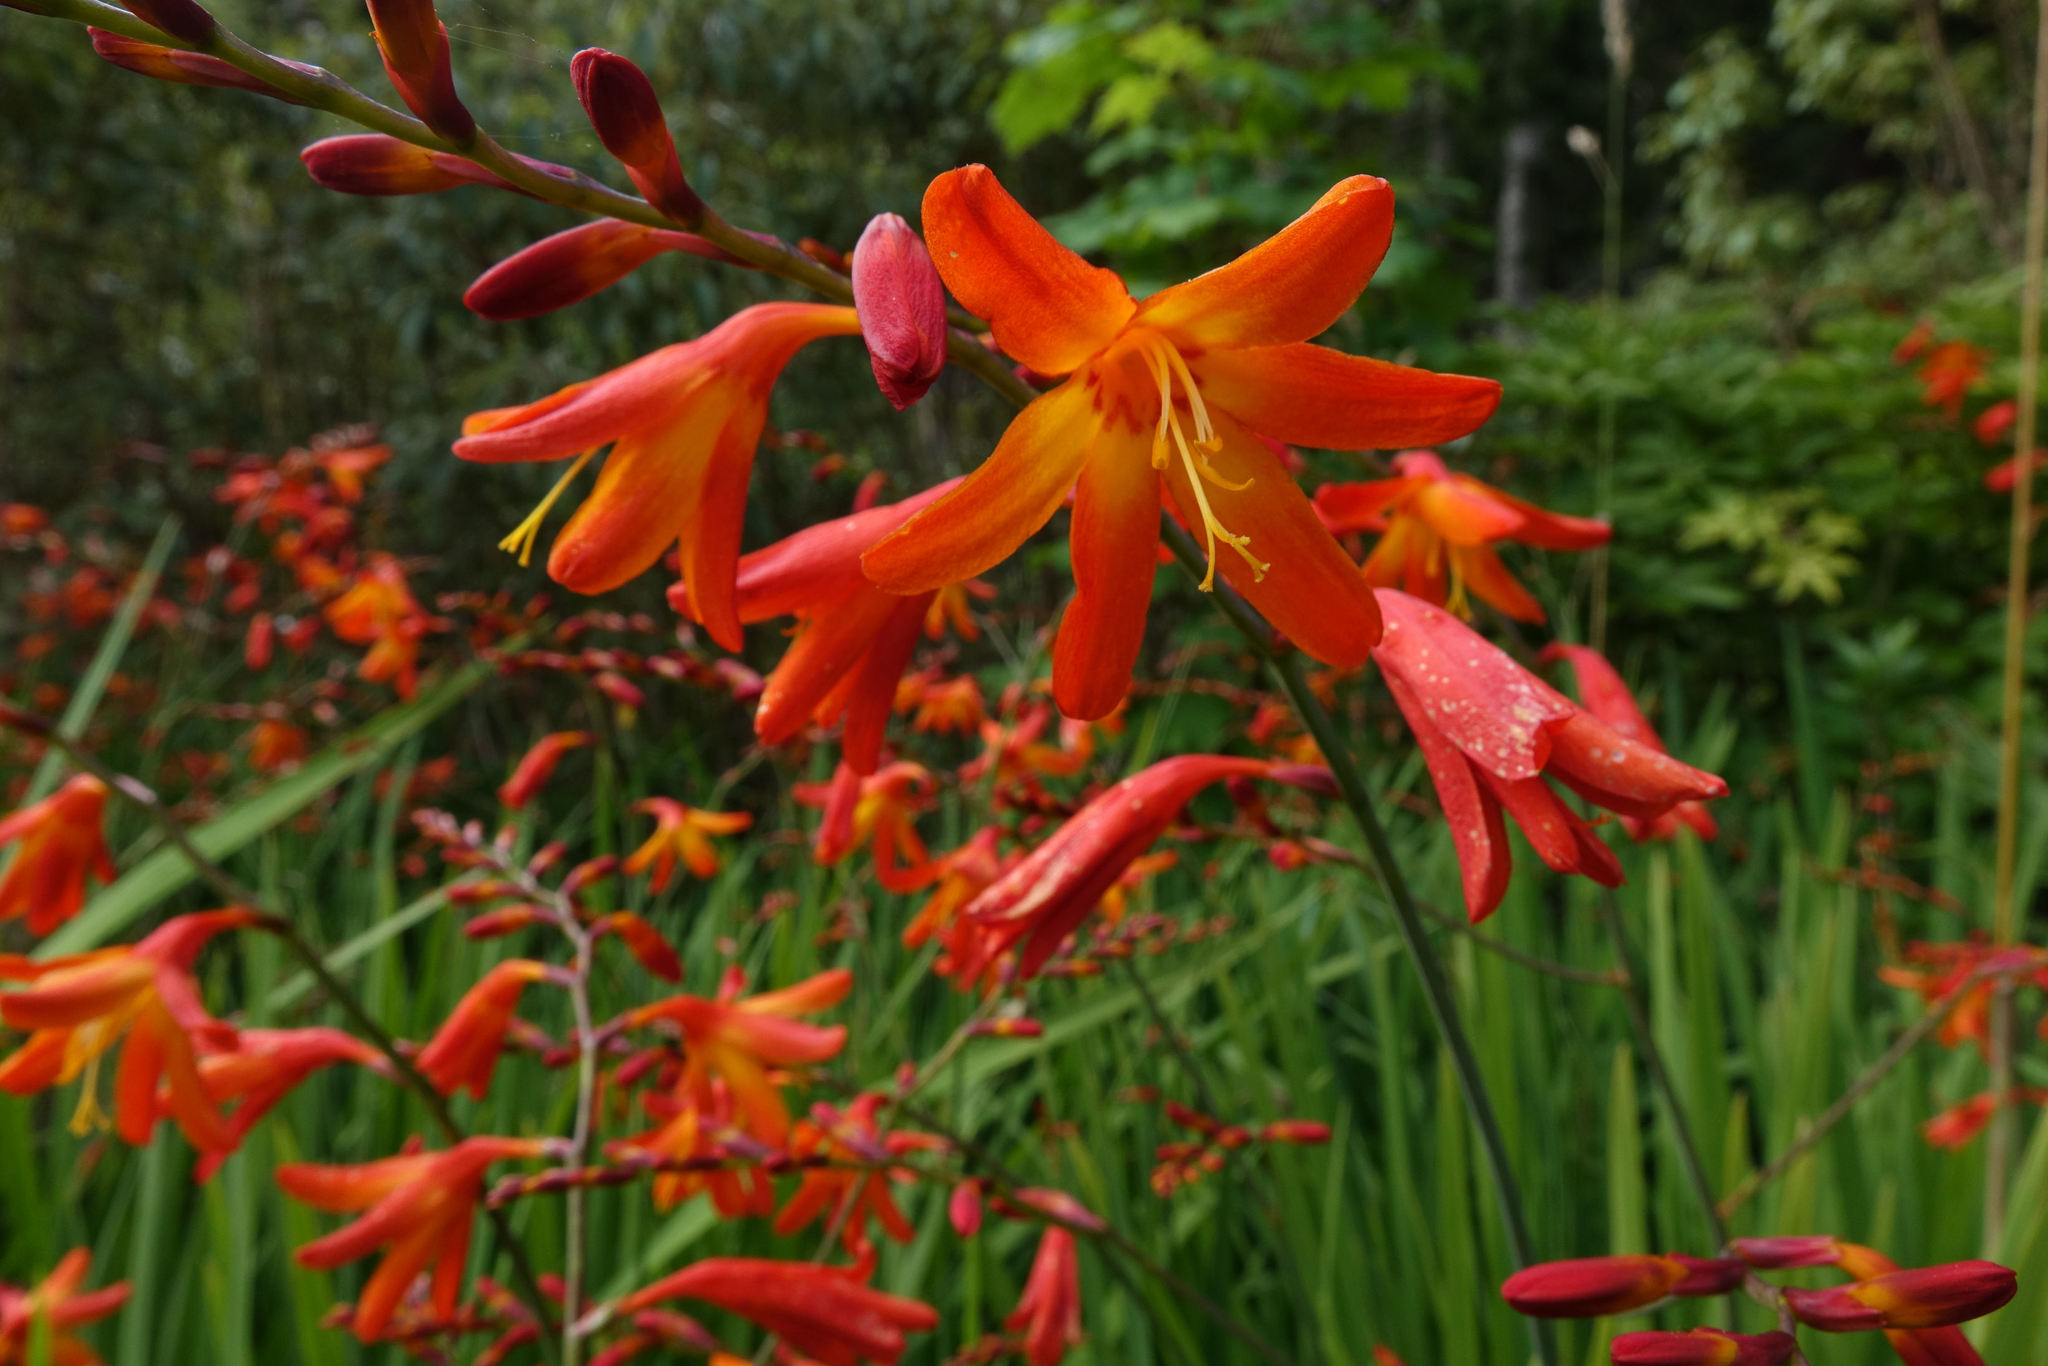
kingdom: Plantae
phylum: Tracheophyta
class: Liliopsida
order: Asparagales
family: Iridaceae
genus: Crocosmia
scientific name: Crocosmia crocosmiiflora
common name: Montbretia
